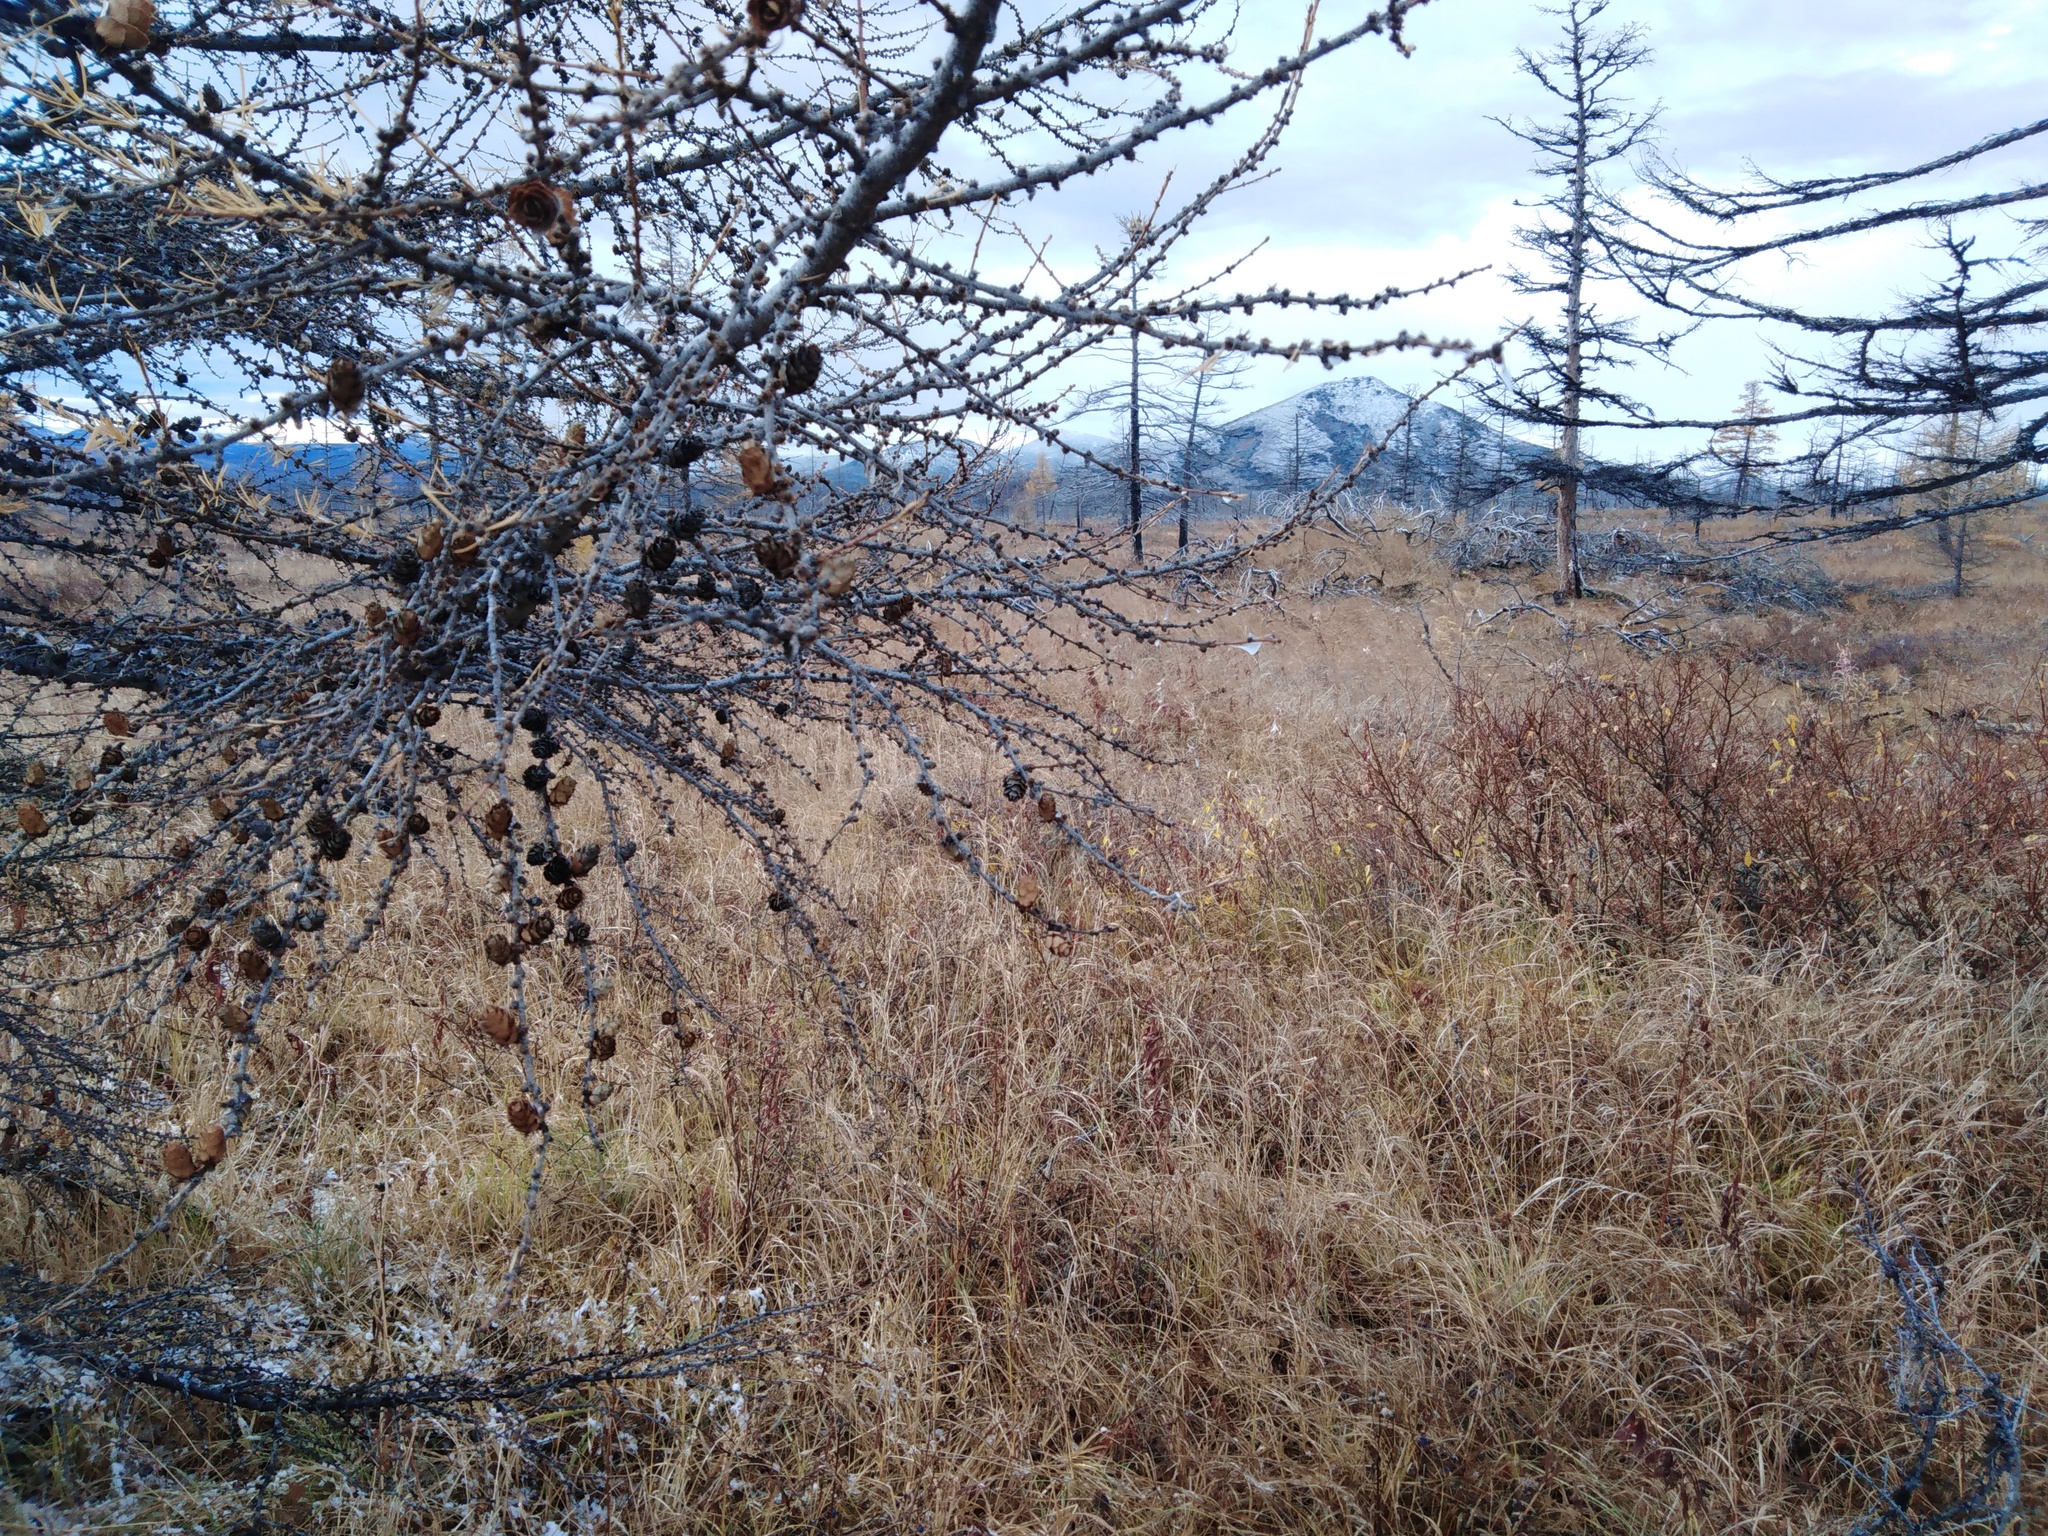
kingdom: Plantae
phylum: Tracheophyta
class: Pinopsida
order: Pinales
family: Pinaceae
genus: Larix
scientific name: Larix gmelinii
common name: Dahurian larch
